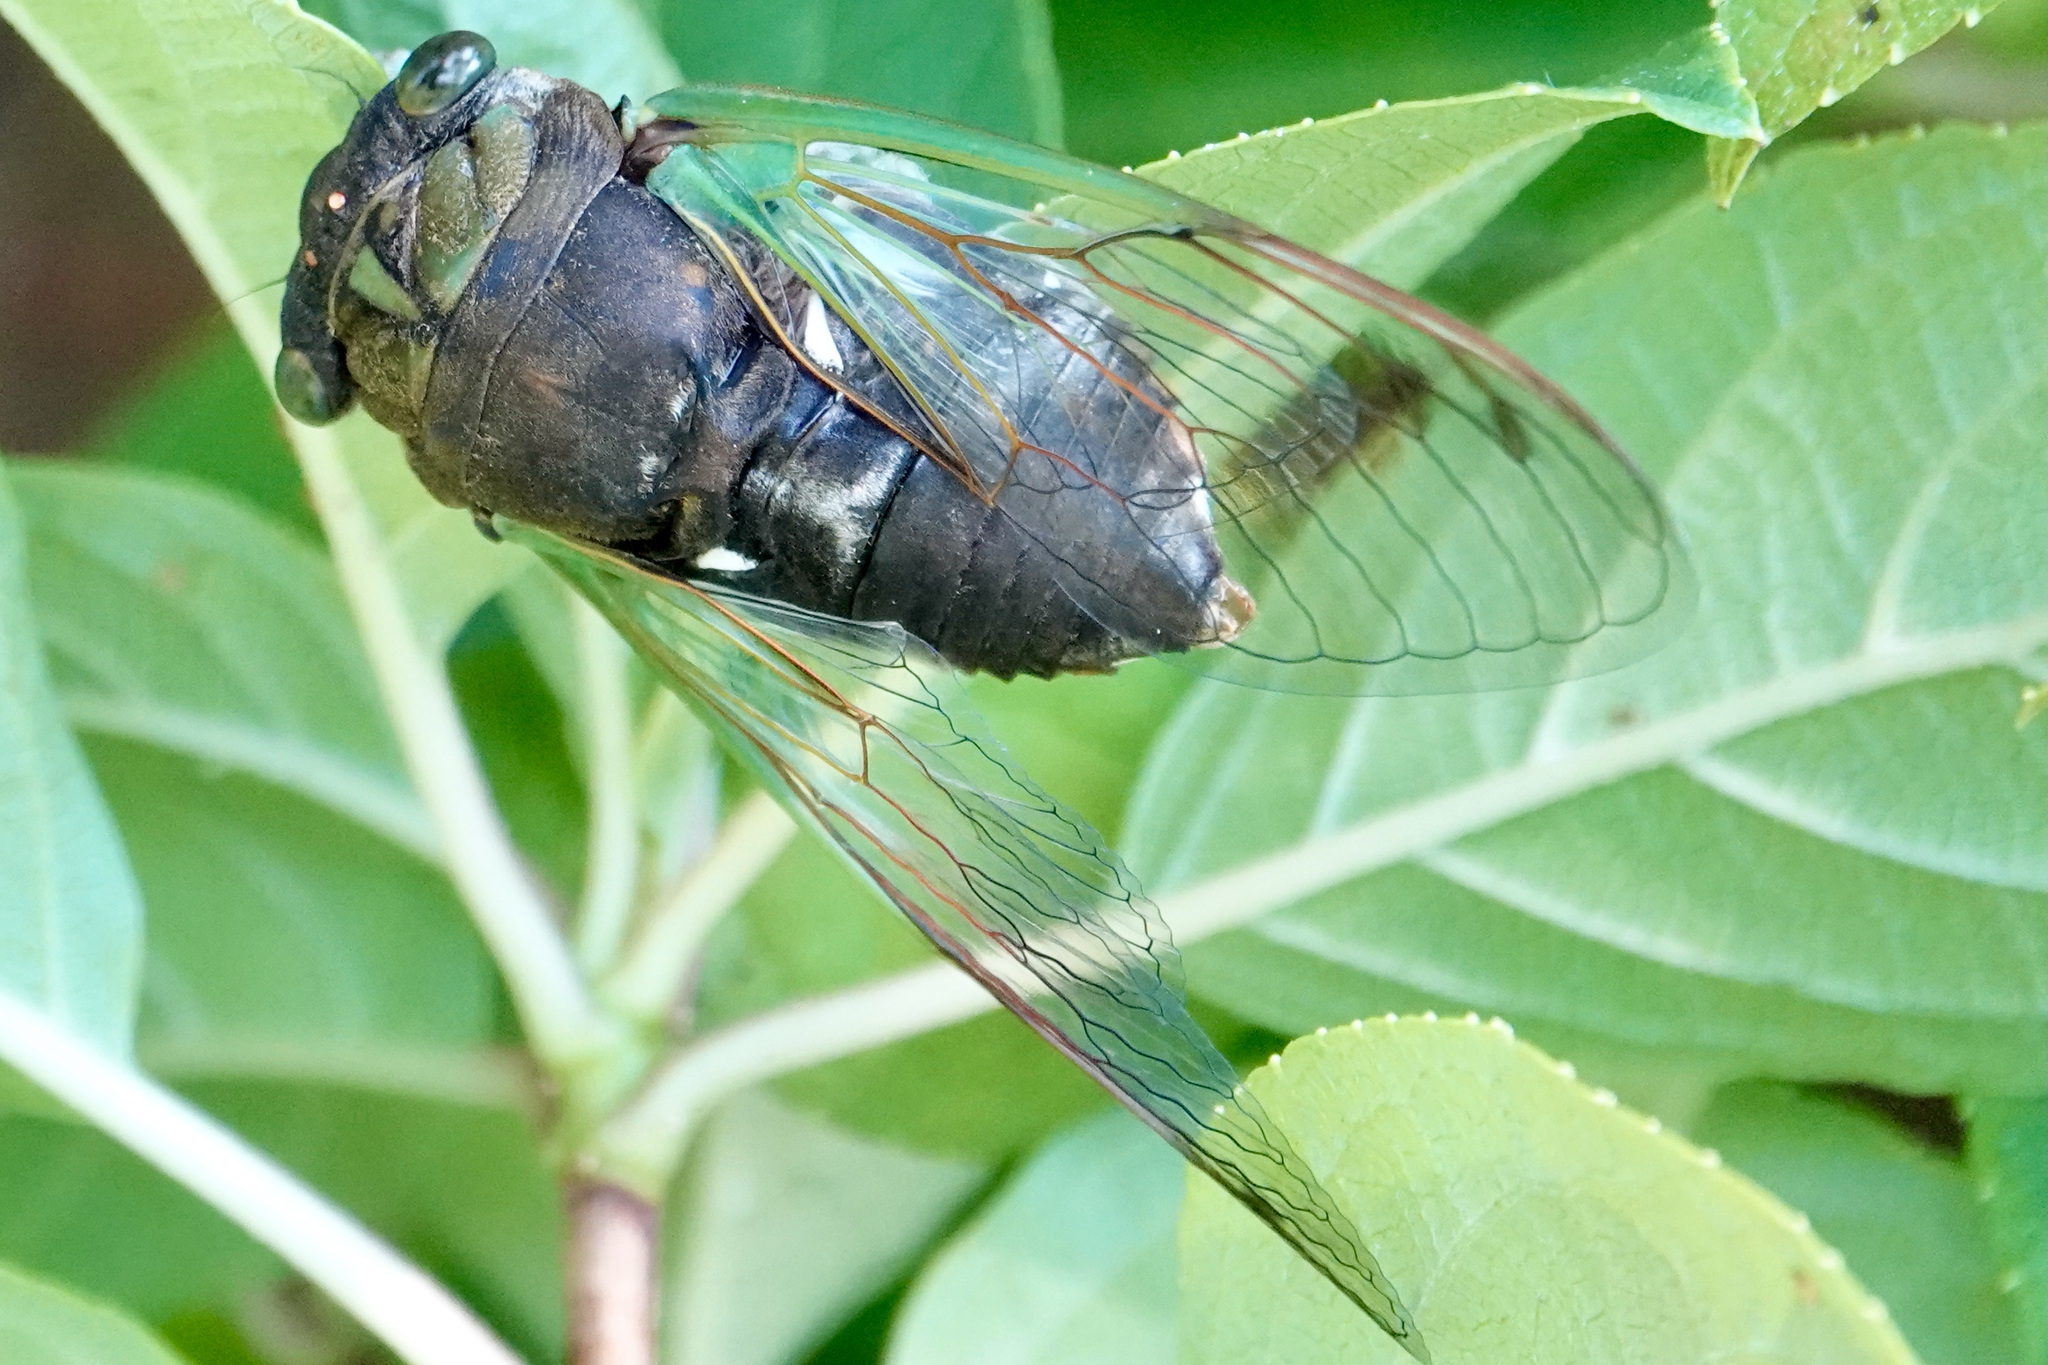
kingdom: Animalia
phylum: Arthropoda
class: Insecta
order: Hemiptera
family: Cicadidae
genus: Neotibicen
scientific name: Neotibicen tibicen
